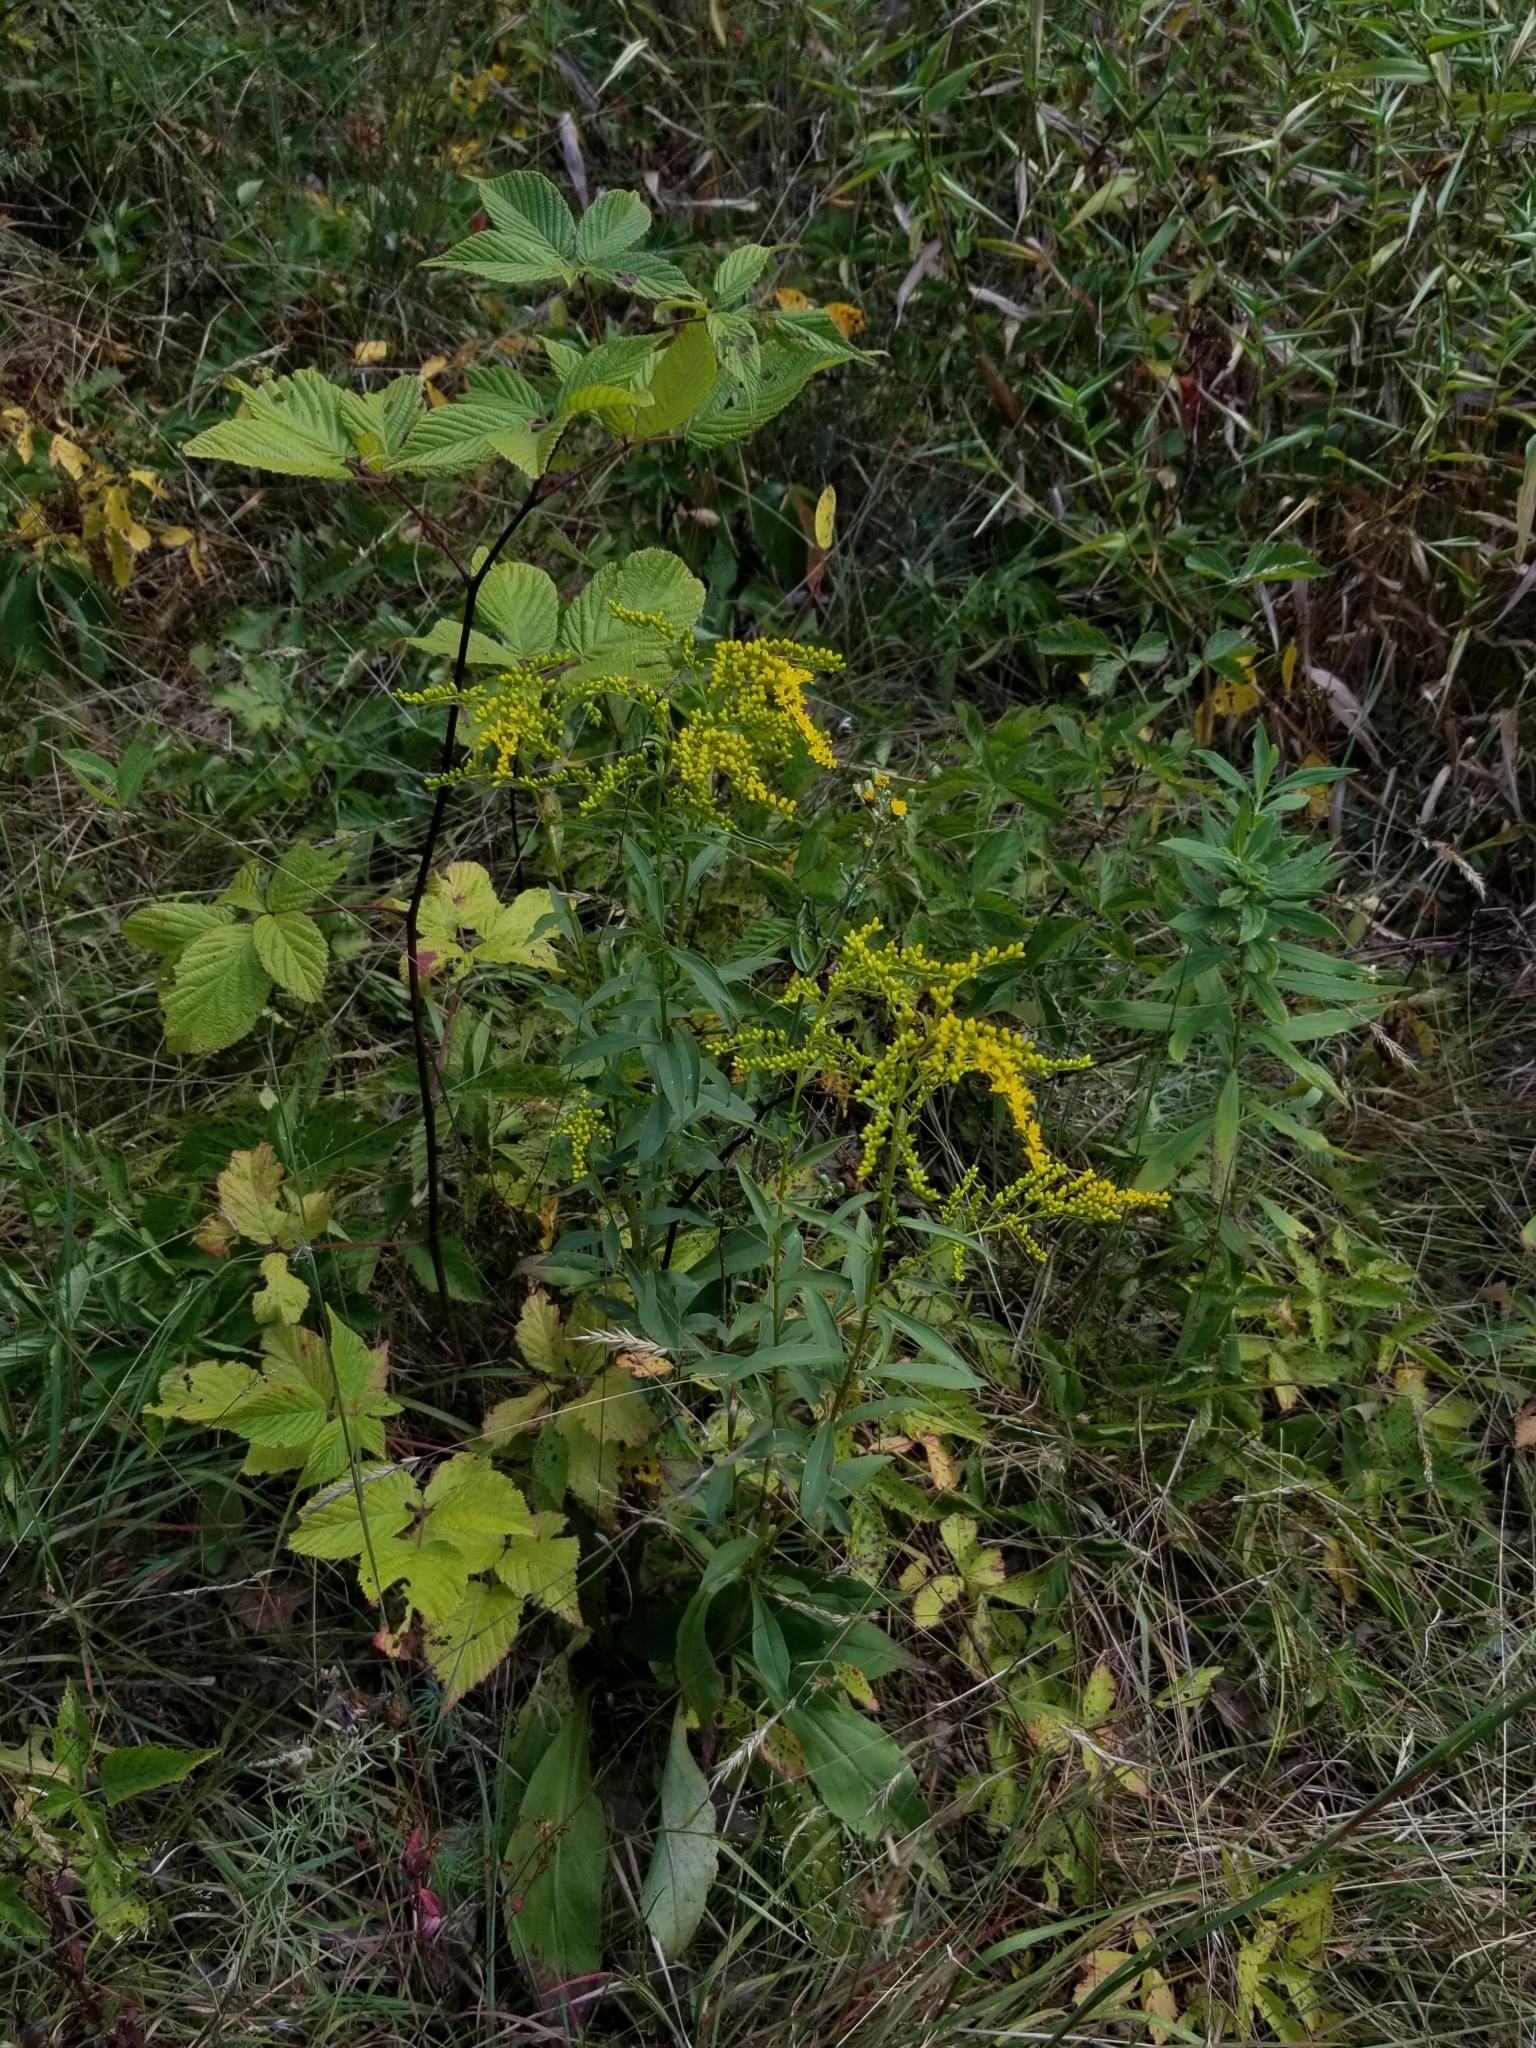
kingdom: Plantae
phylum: Tracheophyta
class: Magnoliopsida
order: Asterales
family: Asteraceae
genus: Solidago
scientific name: Solidago juncea
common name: Early goldenrod
